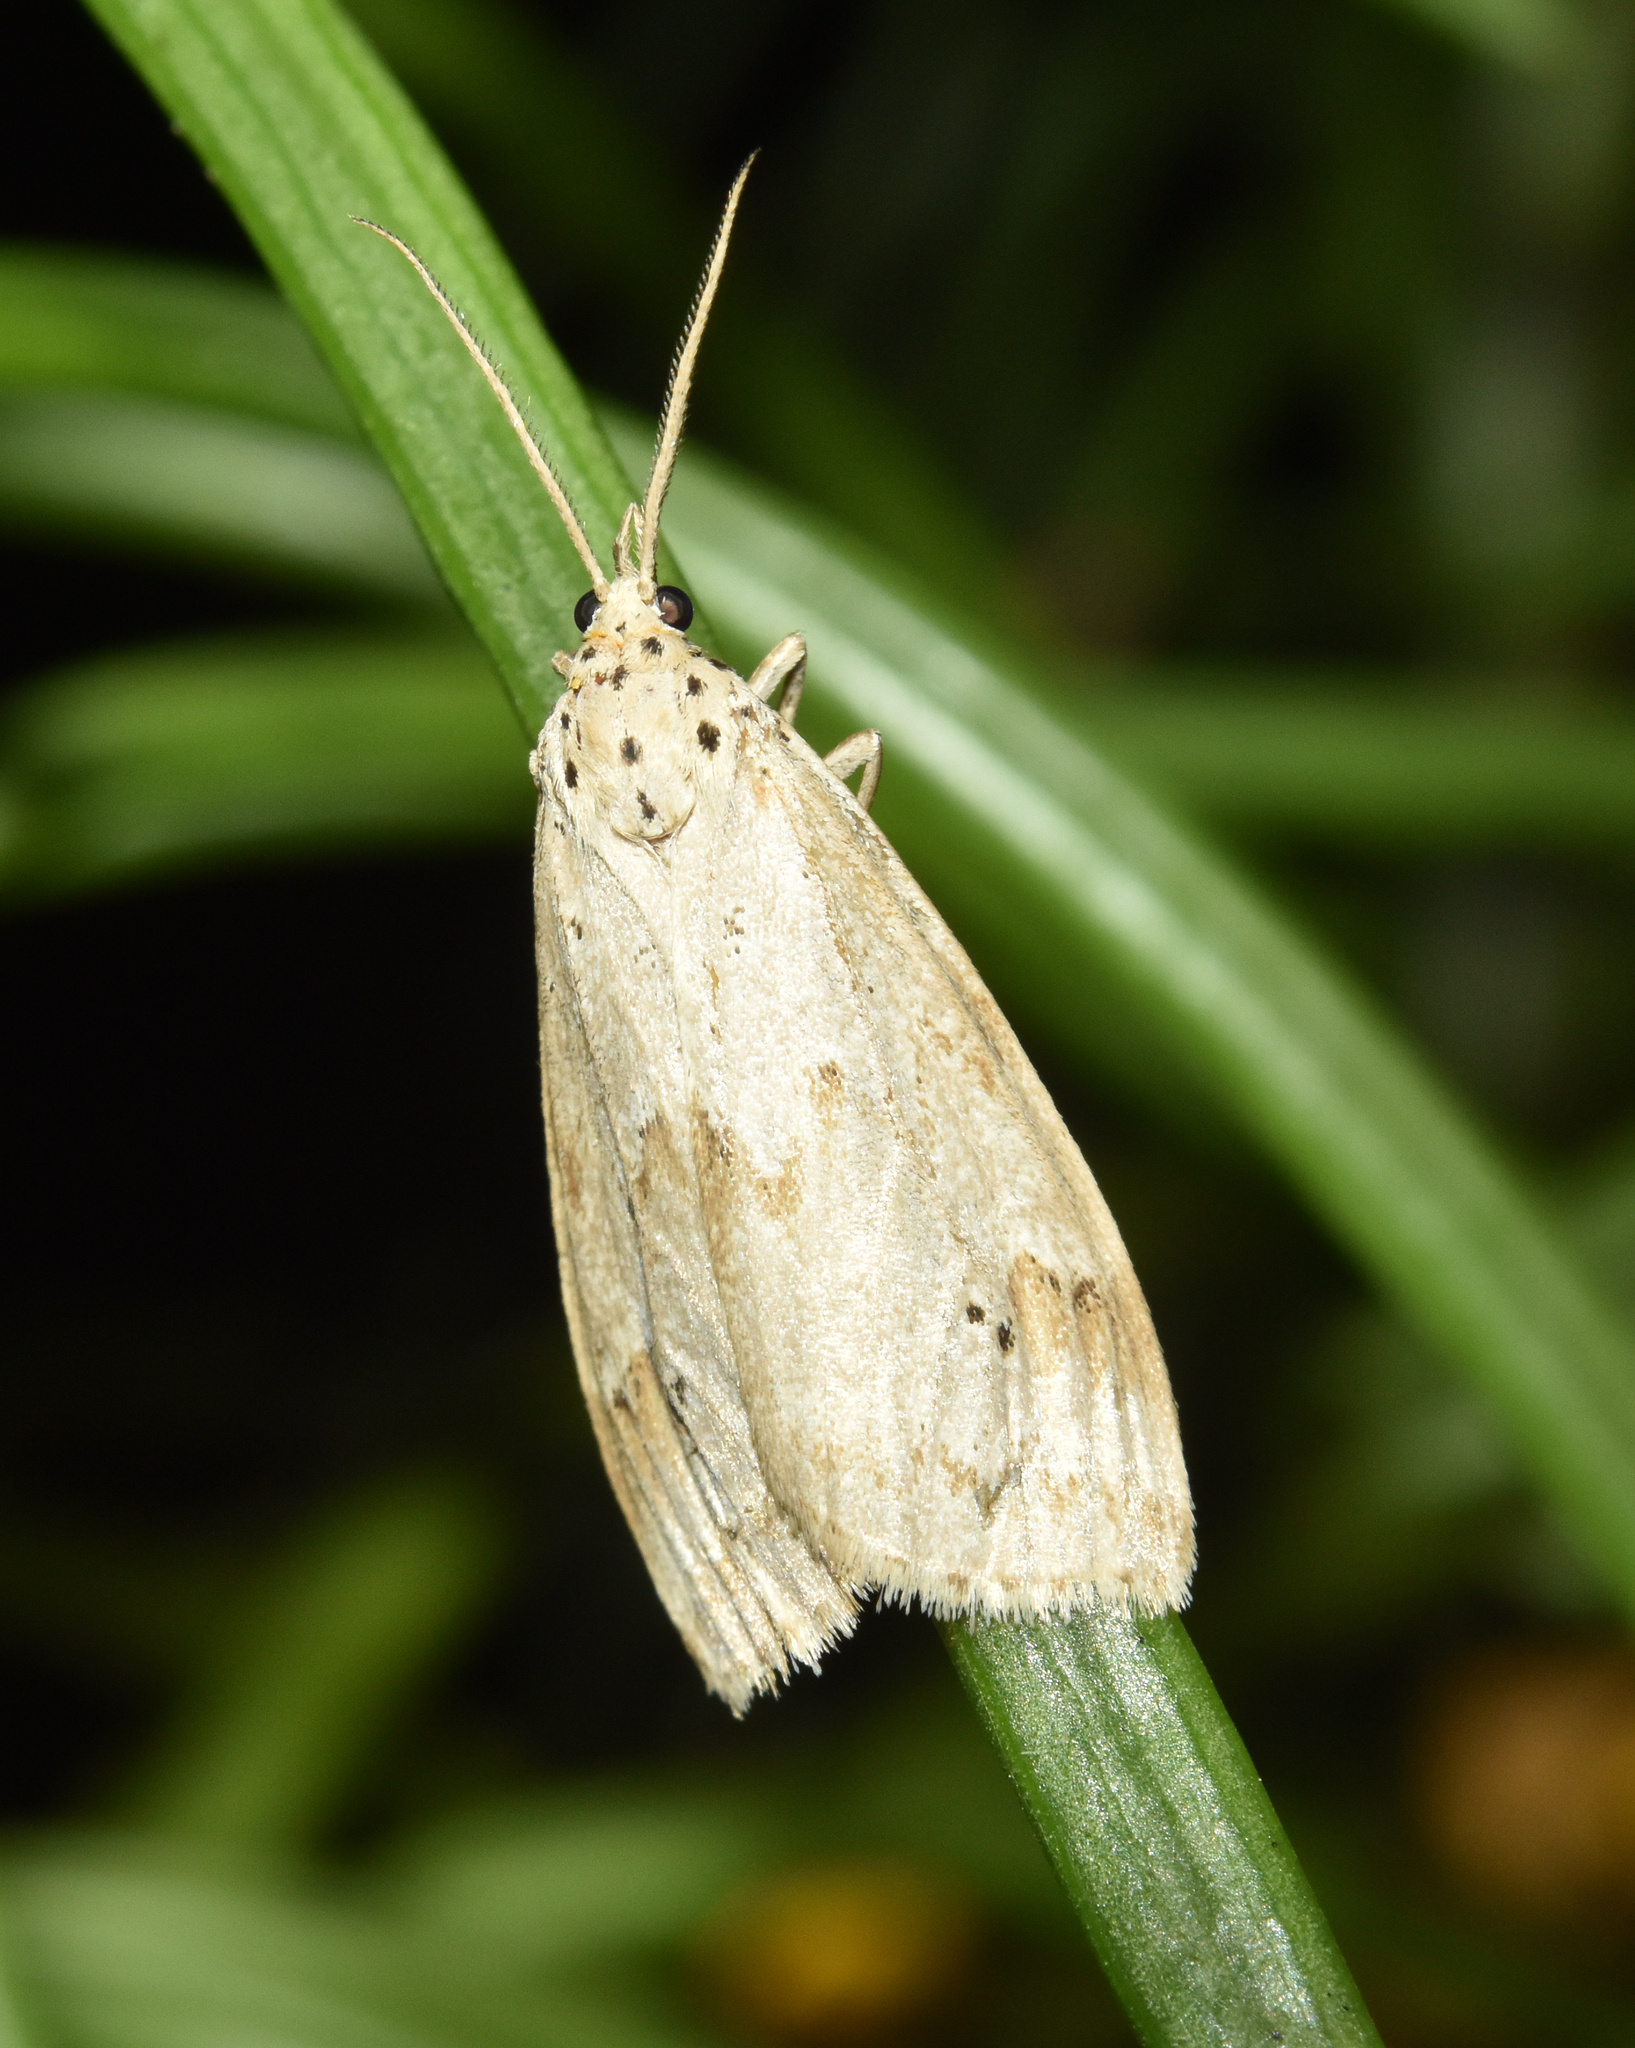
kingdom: Animalia
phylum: Arthropoda
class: Insecta
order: Lepidoptera
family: Erebidae
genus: Galtara
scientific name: Galtara rostrata
